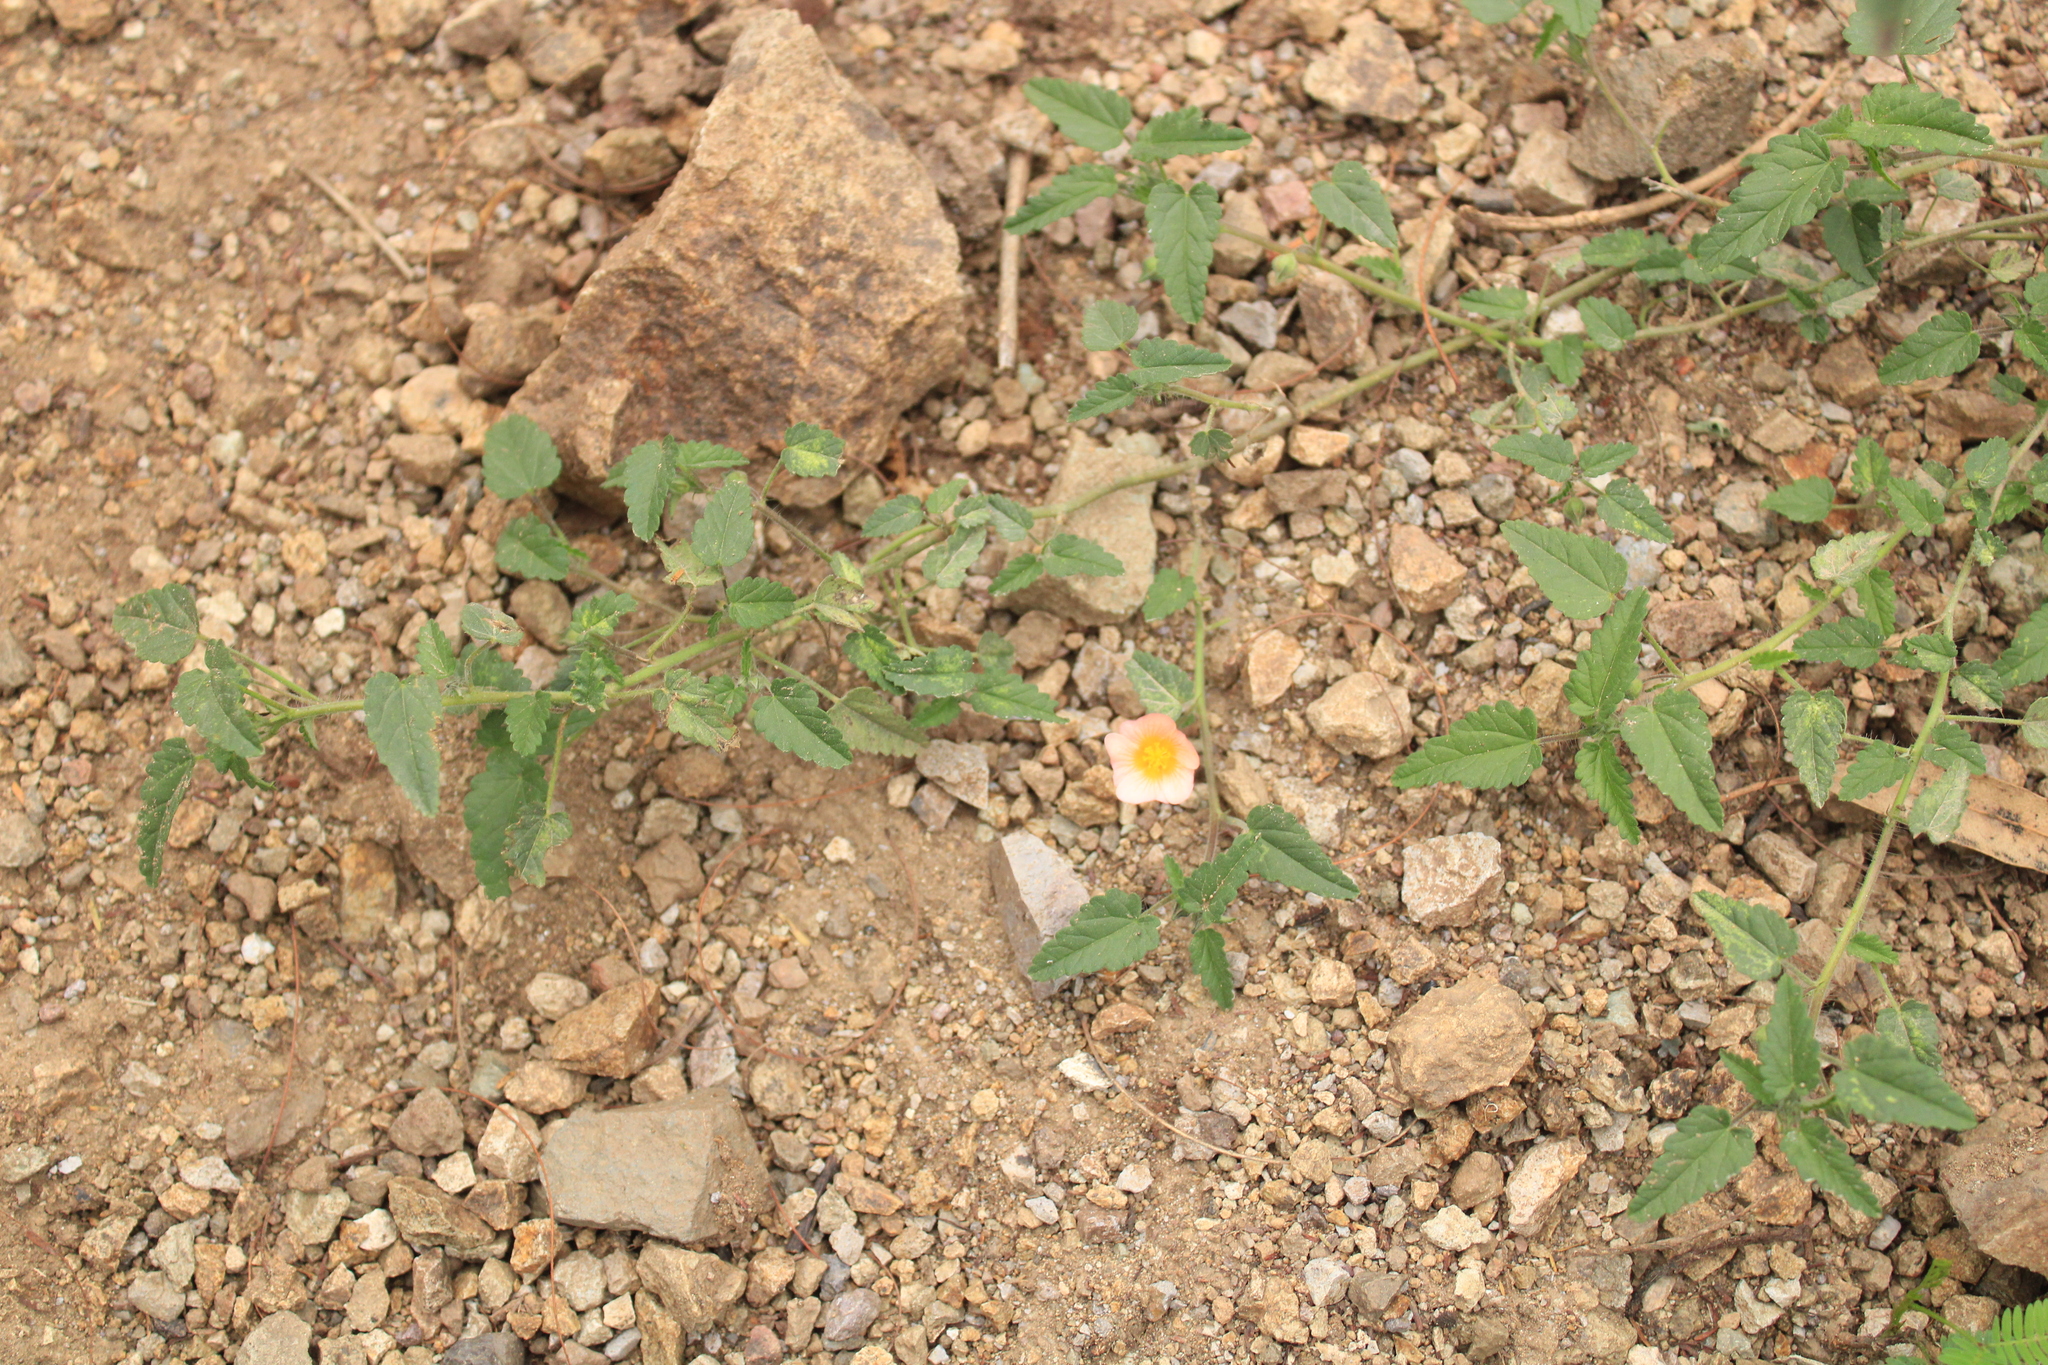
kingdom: Plantae
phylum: Tracheophyta
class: Magnoliopsida
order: Malpighiales
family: Euphorbiaceae
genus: Euphorbia
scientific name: Euphorbia hirta
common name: Pillpod sandmat
